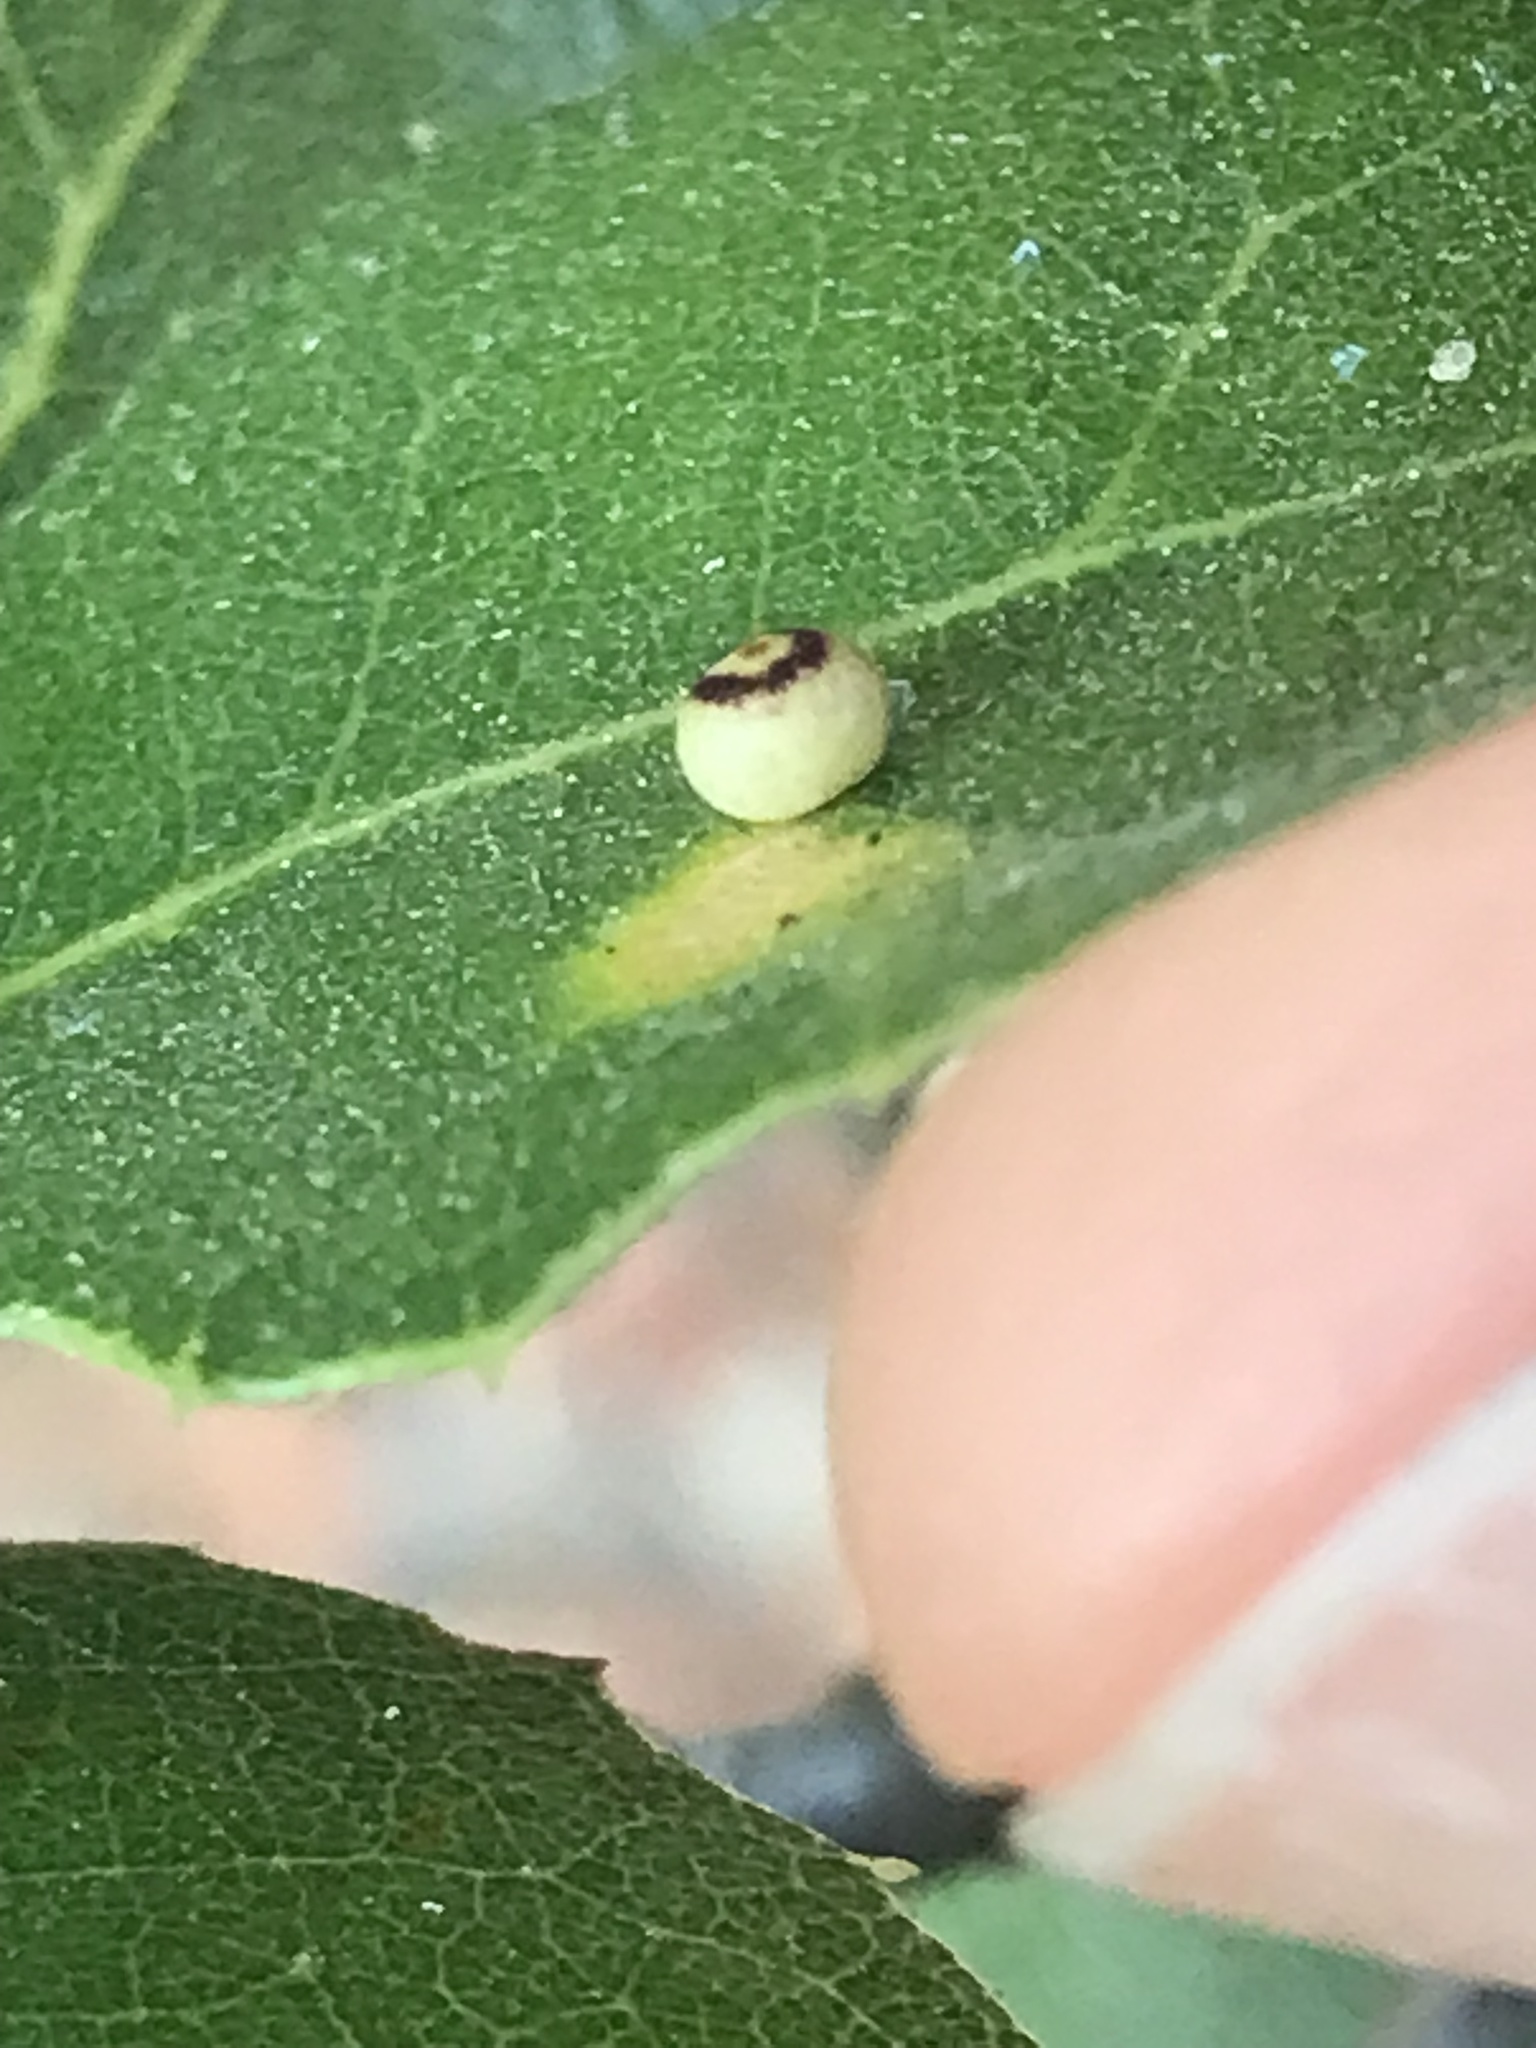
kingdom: Animalia
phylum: Arthropoda
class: Insecta
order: Hymenoptera
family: Cynipidae
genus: Dryocosmus
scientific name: Dryocosmus
